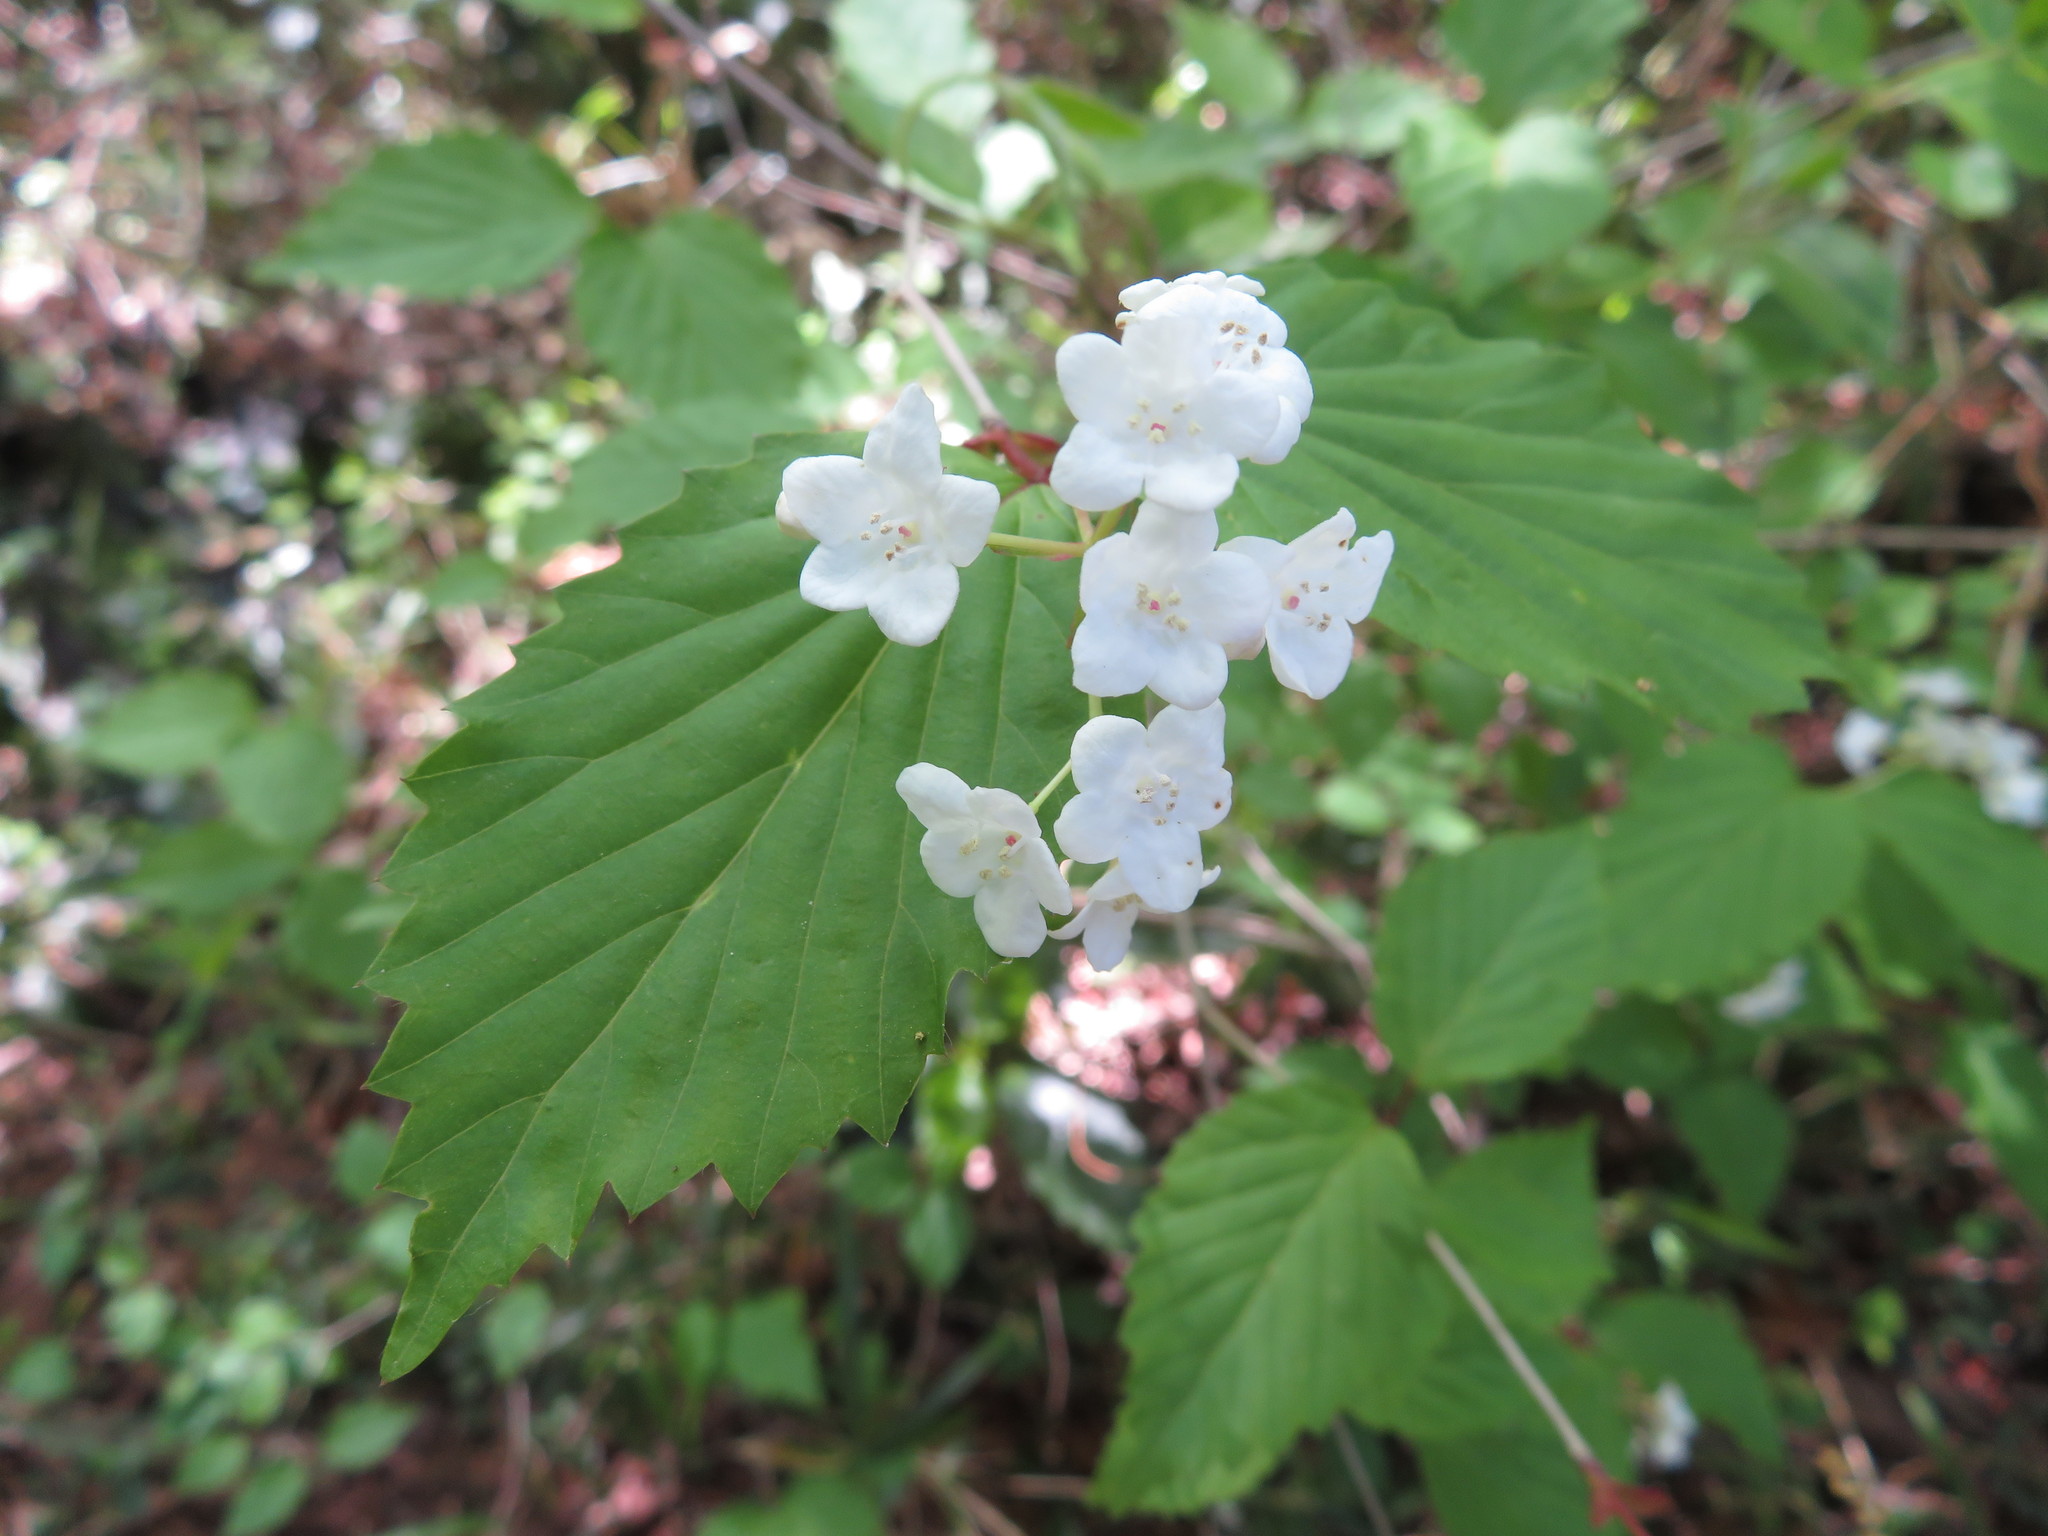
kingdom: Plantae
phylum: Tracheophyta
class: Magnoliopsida
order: Dipsacales
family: Viburnaceae
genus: Viburnum
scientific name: Viburnum phlebotrichum
